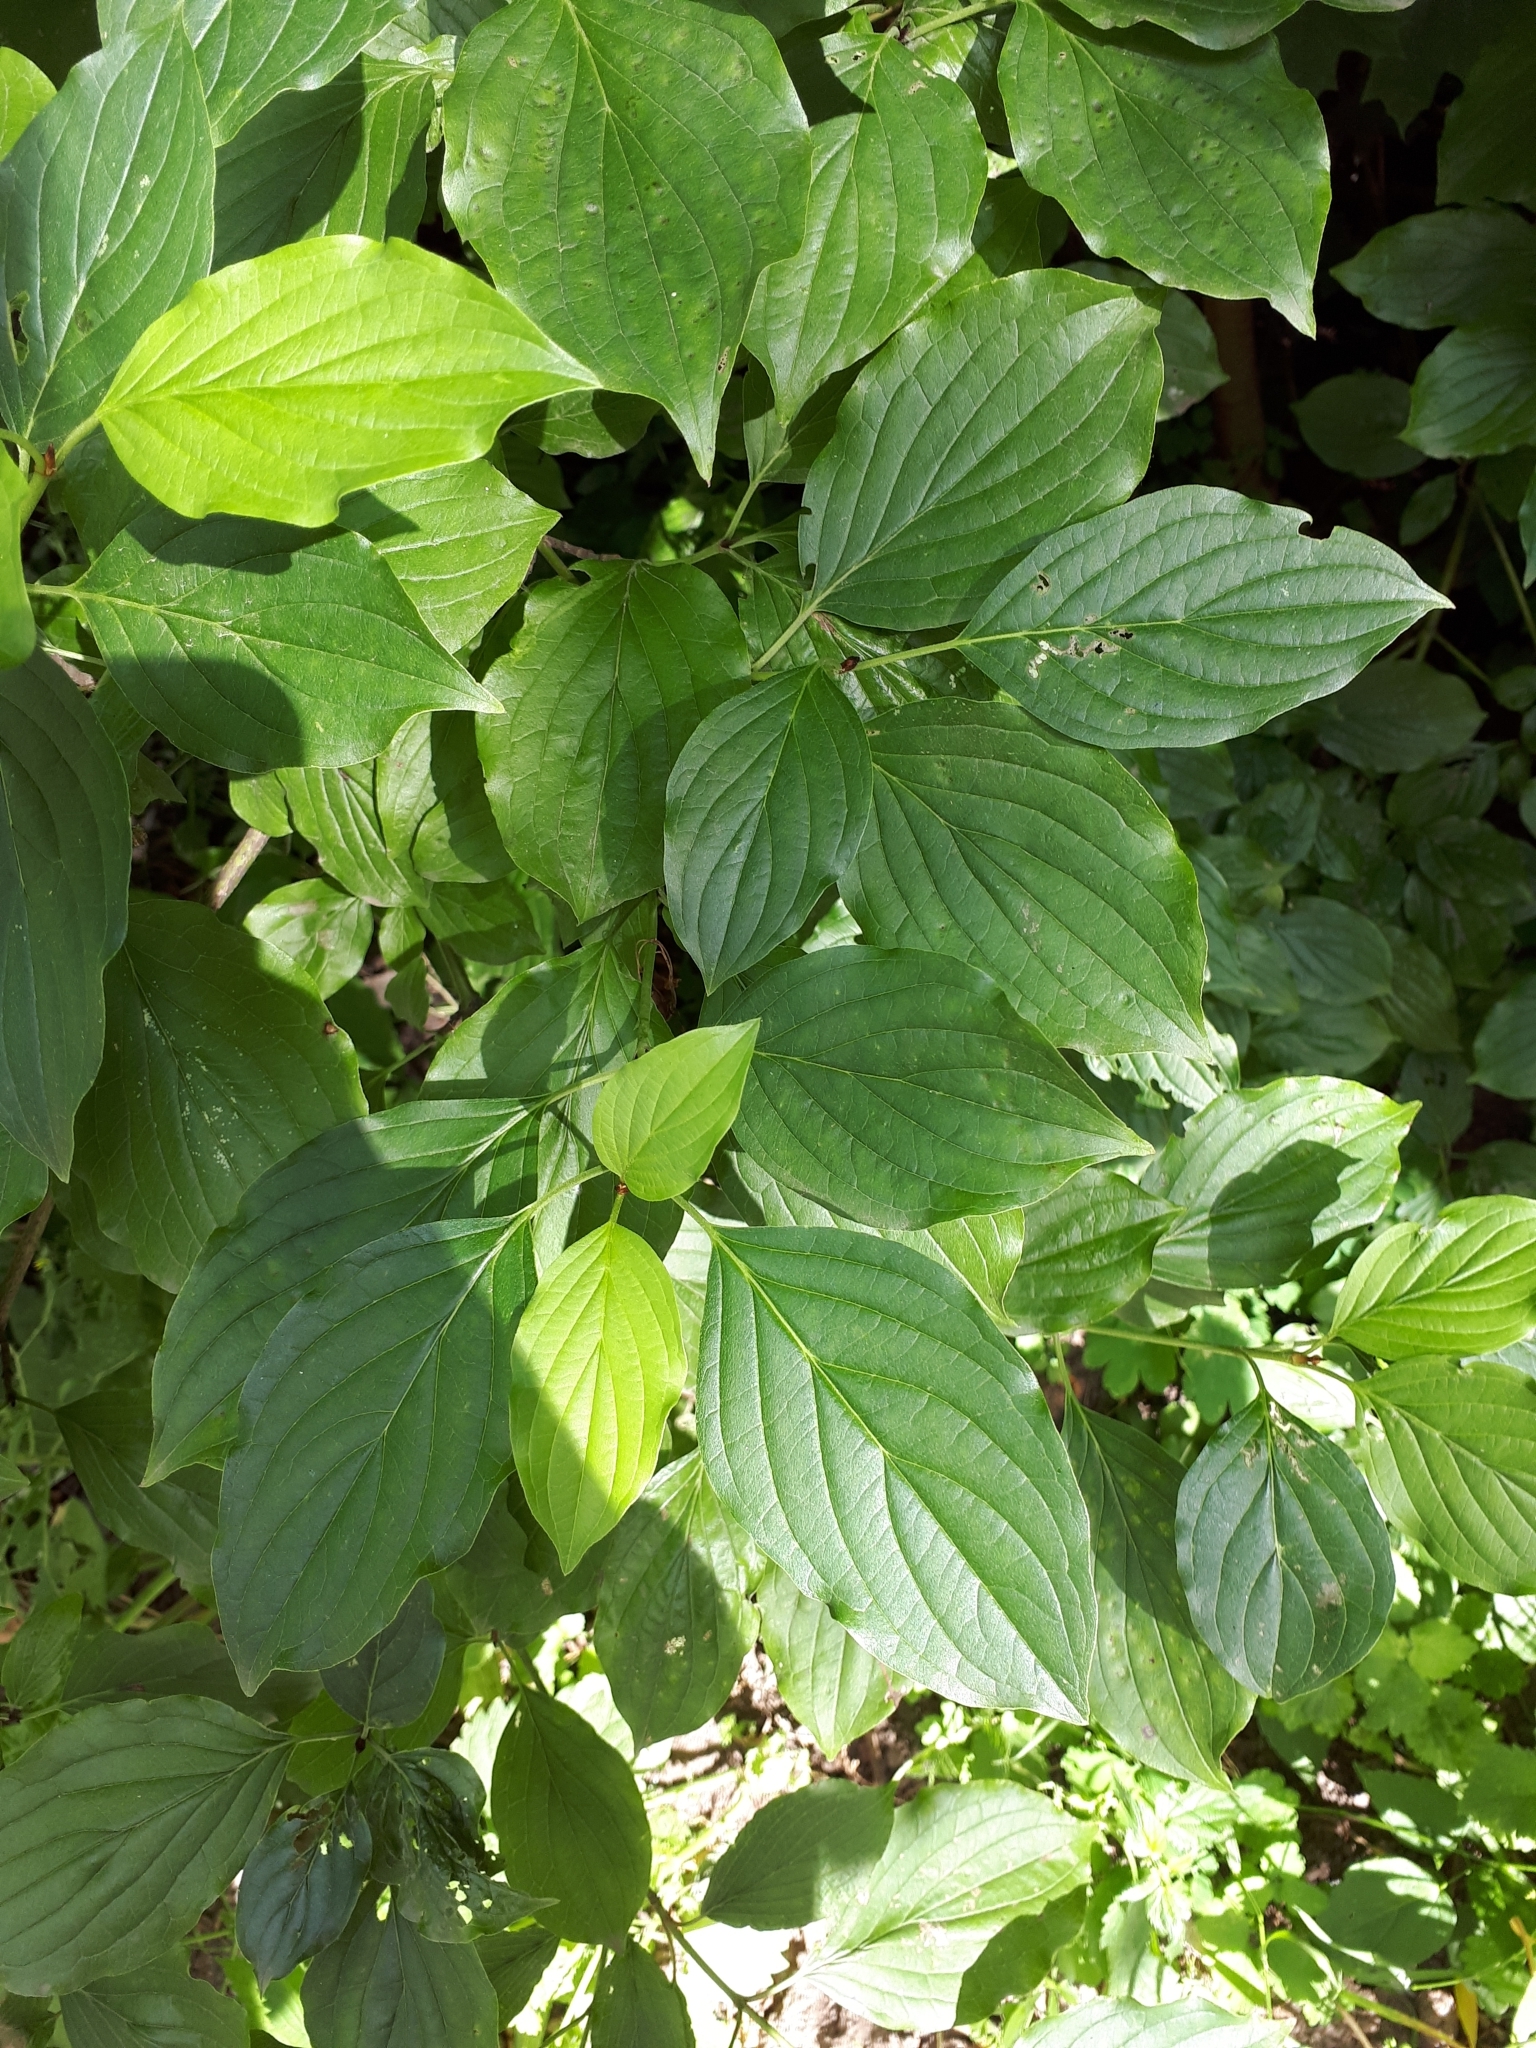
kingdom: Plantae
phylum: Tracheophyta
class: Magnoliopsida
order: Cornales
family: Cornaceae
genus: Cornus
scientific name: Cornus sanguinea
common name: Dogwood
